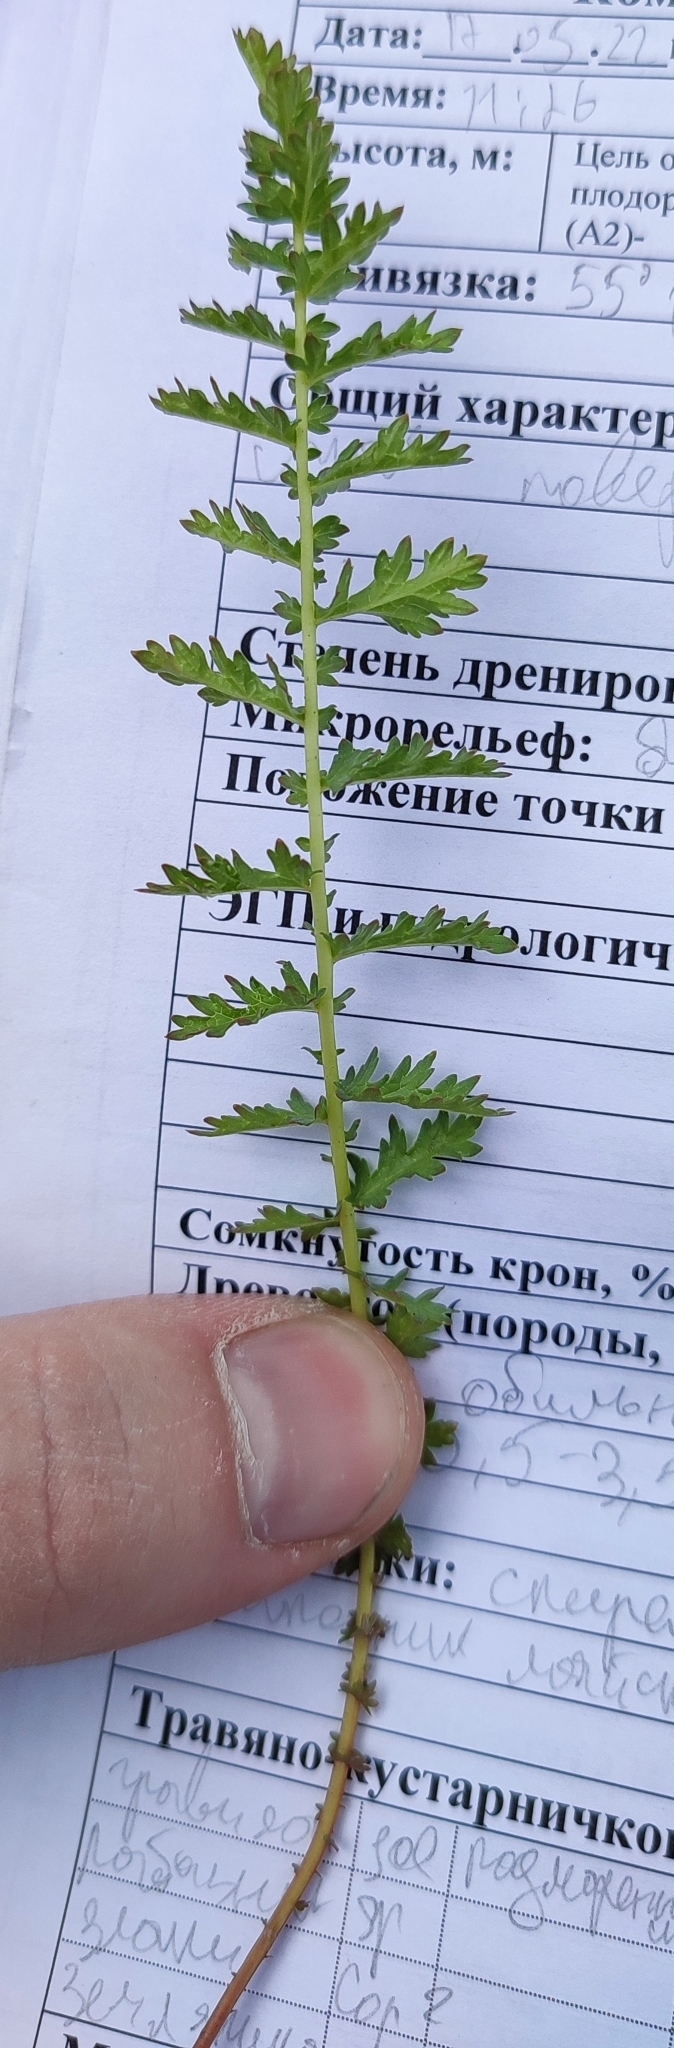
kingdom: Plantae
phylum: Tracheophyta
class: Magnoliopsida
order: Rosales
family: Rosaceae
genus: Filipendula
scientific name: Filipendula vulgaris
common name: Dropwort
